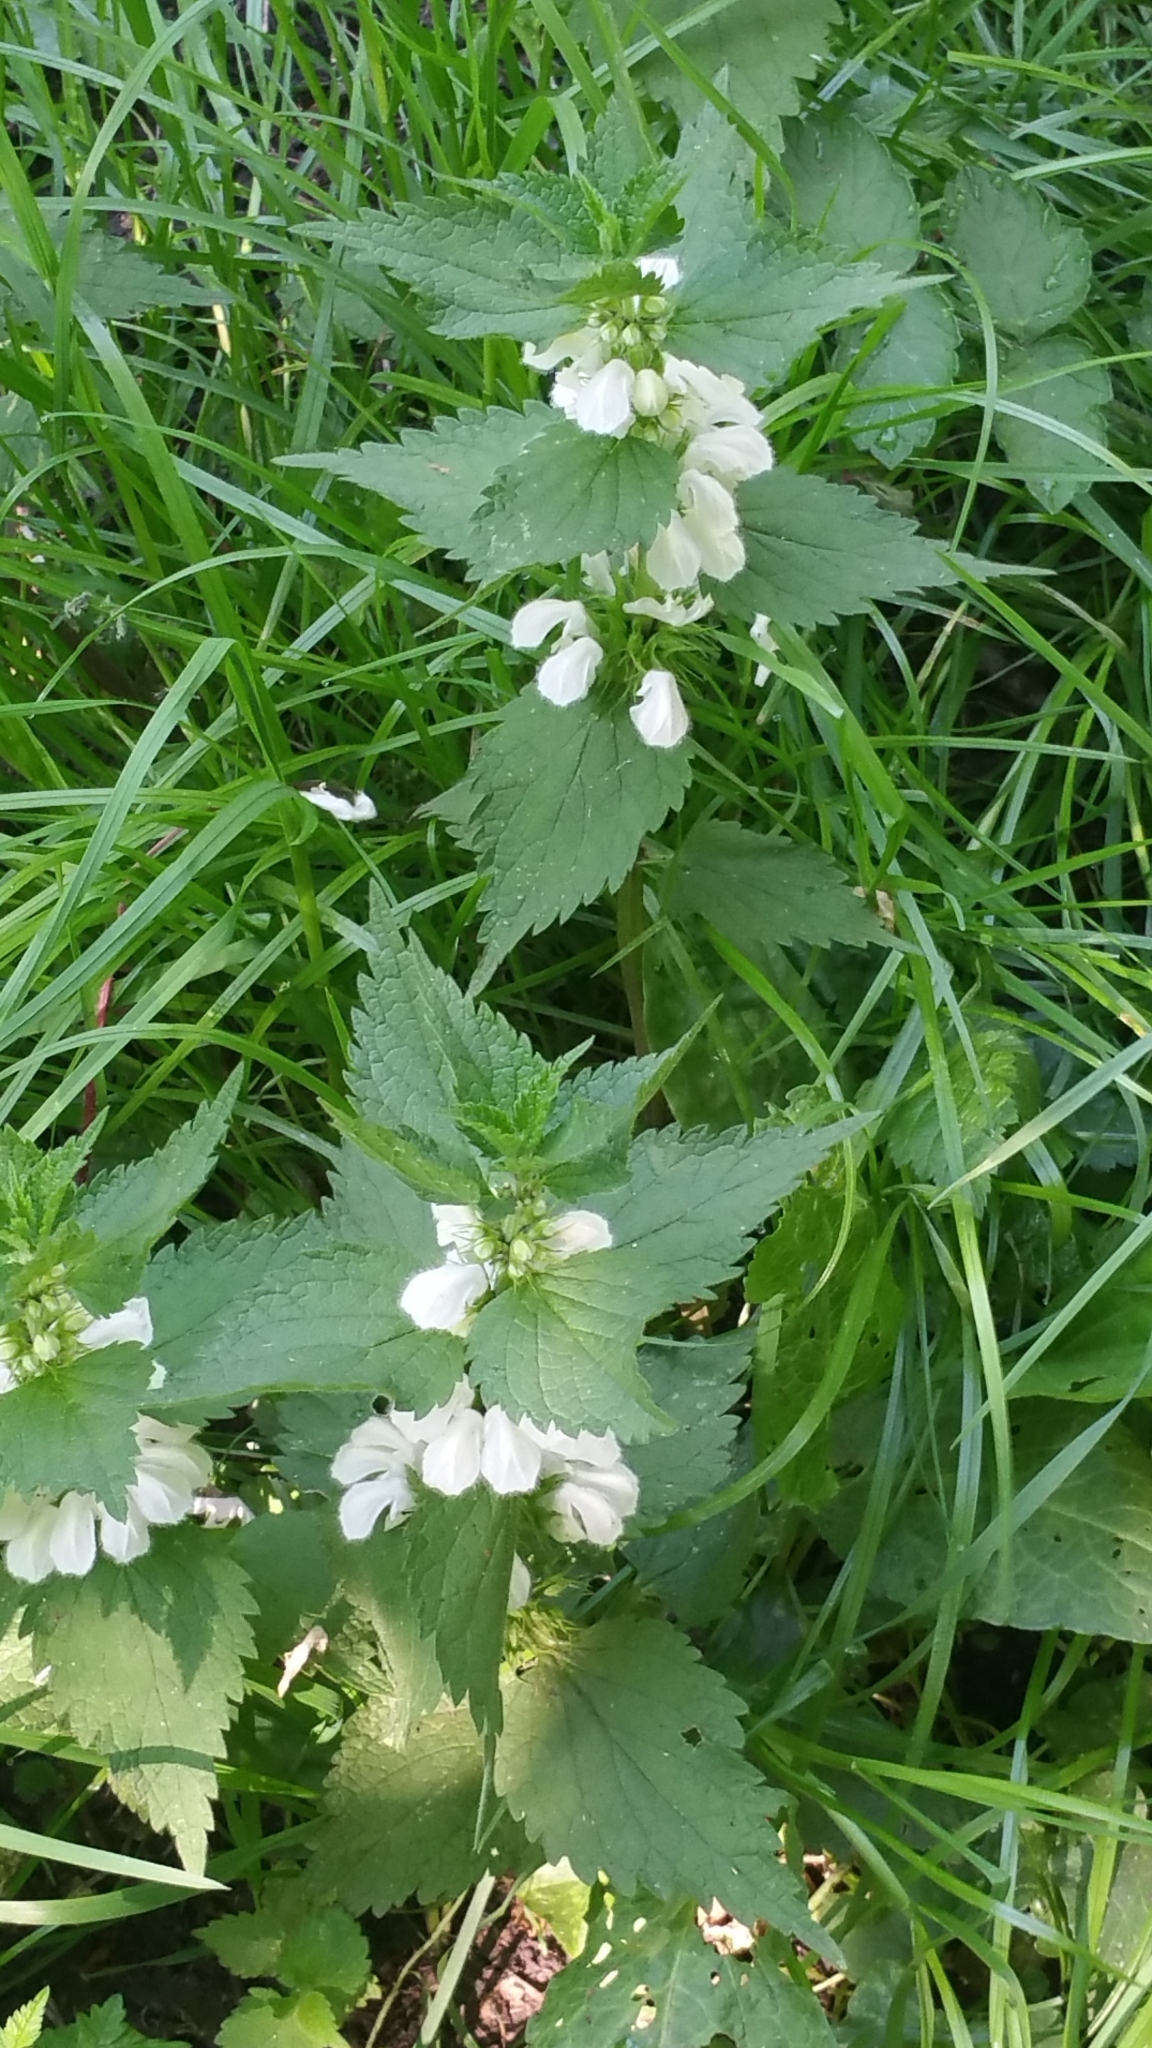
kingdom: Plantae
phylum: Tracheophyta
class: Magnoliopsida
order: Lamiales
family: Lamiaceae
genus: Lamium
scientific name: Lamium album
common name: White dead-nettle
